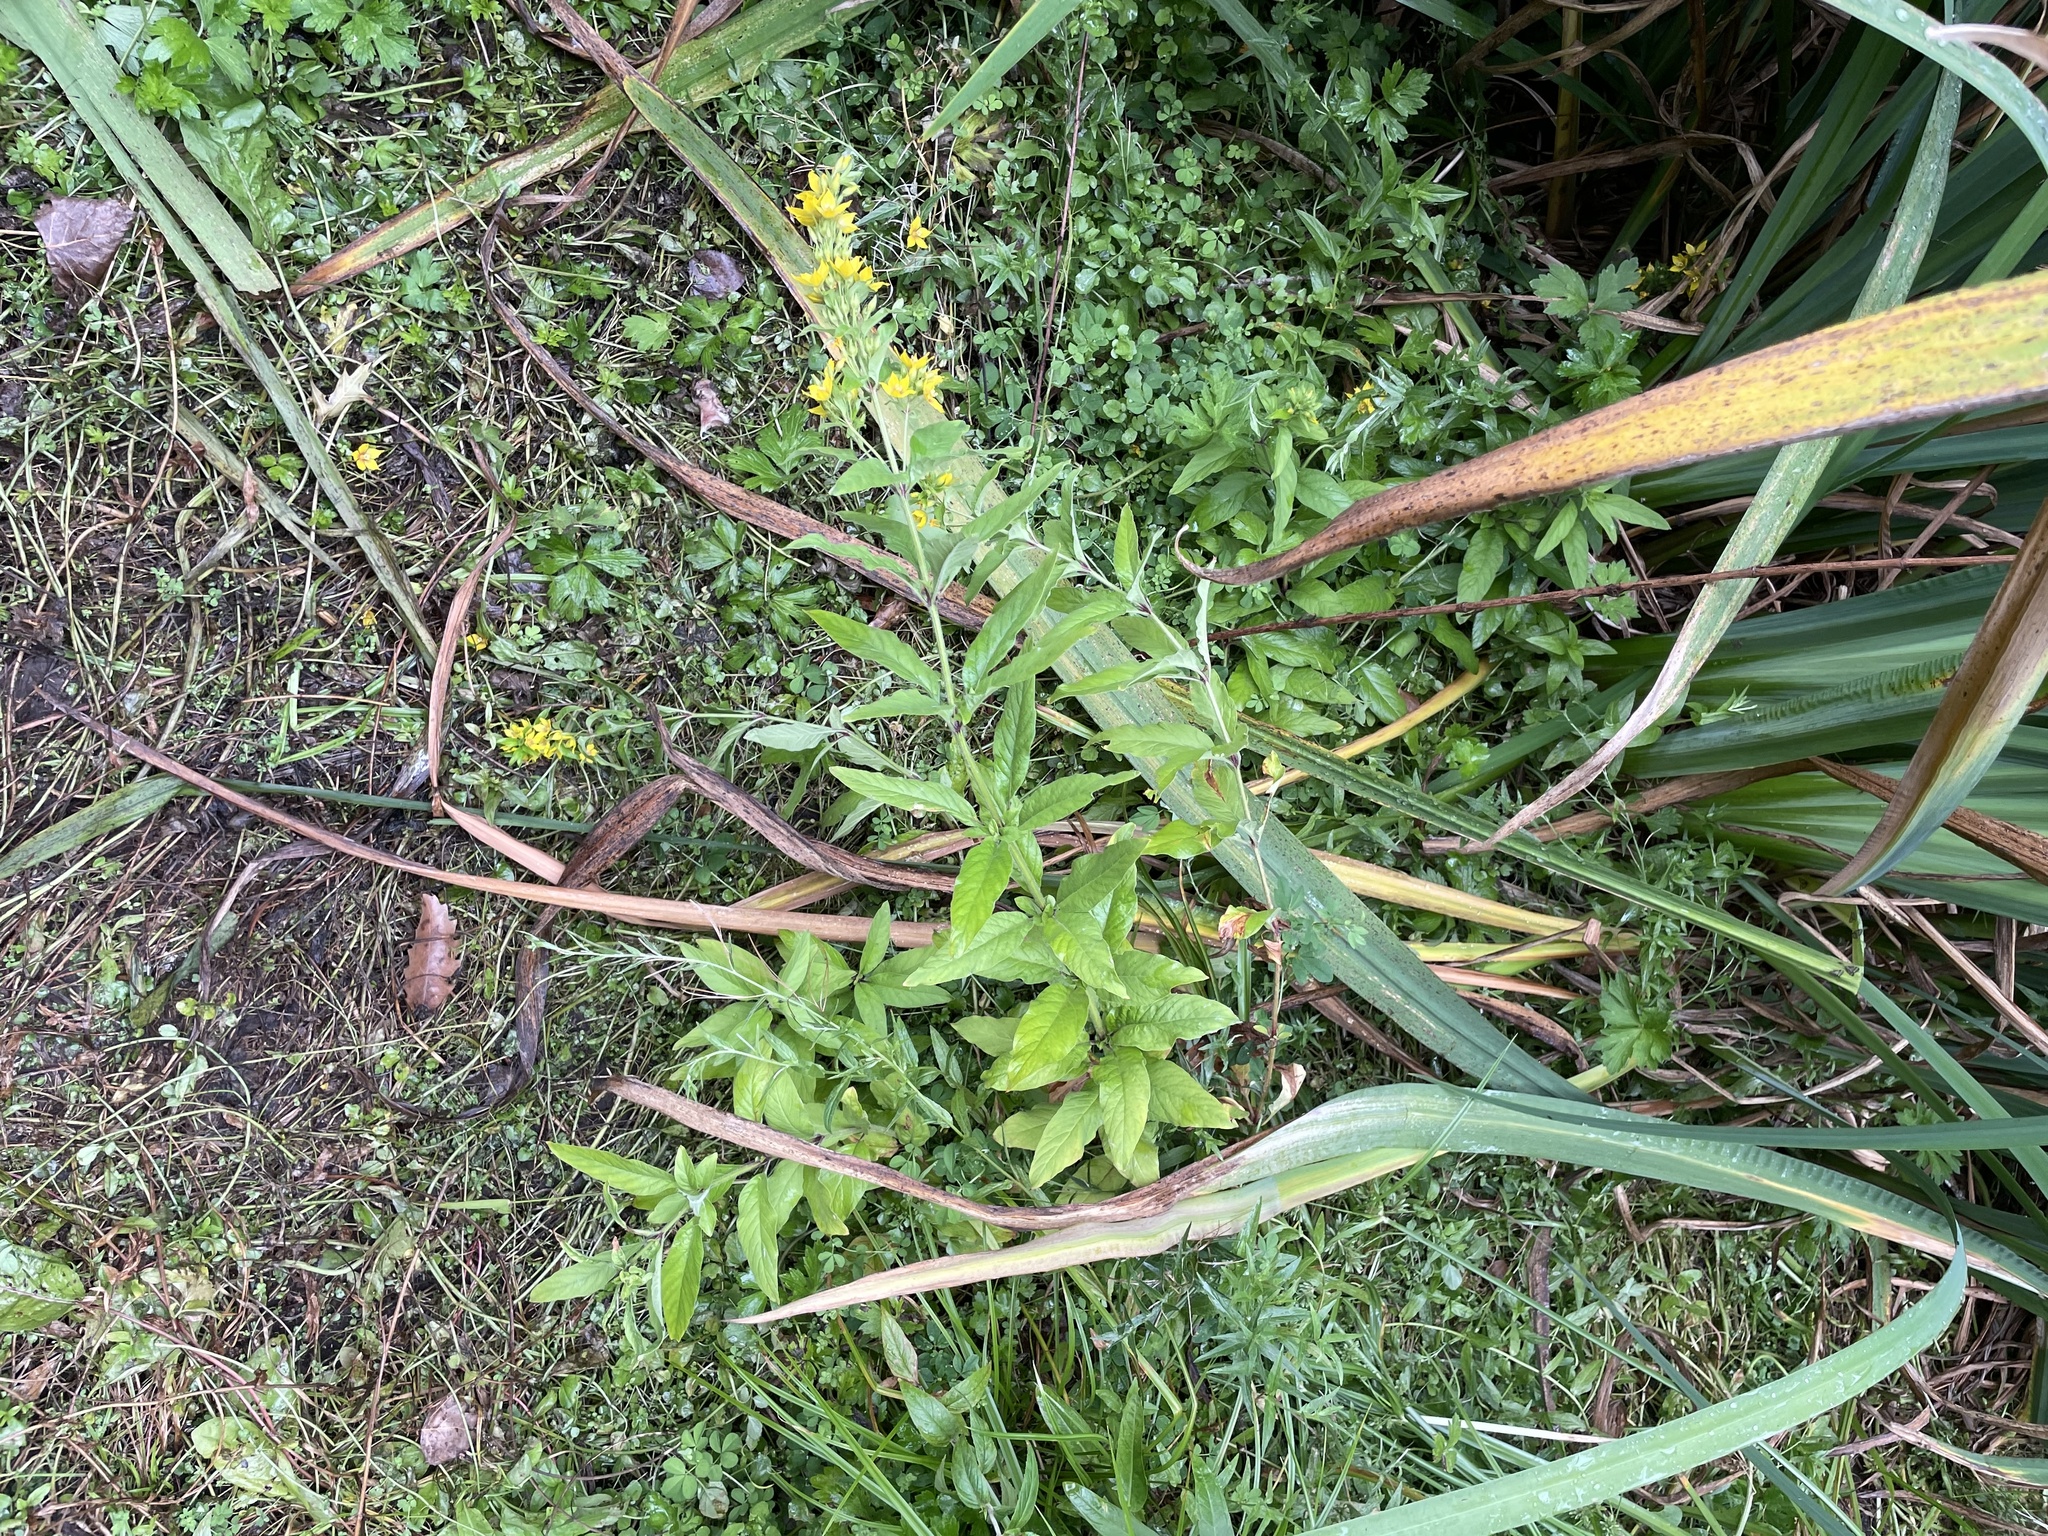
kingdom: Plantae
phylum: Tracheophyta
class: Magnoliopsida
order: Ericales
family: Primulaceae
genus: Lysimachia
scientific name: Lysimachia vulgaris
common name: Yellow loosestrife
